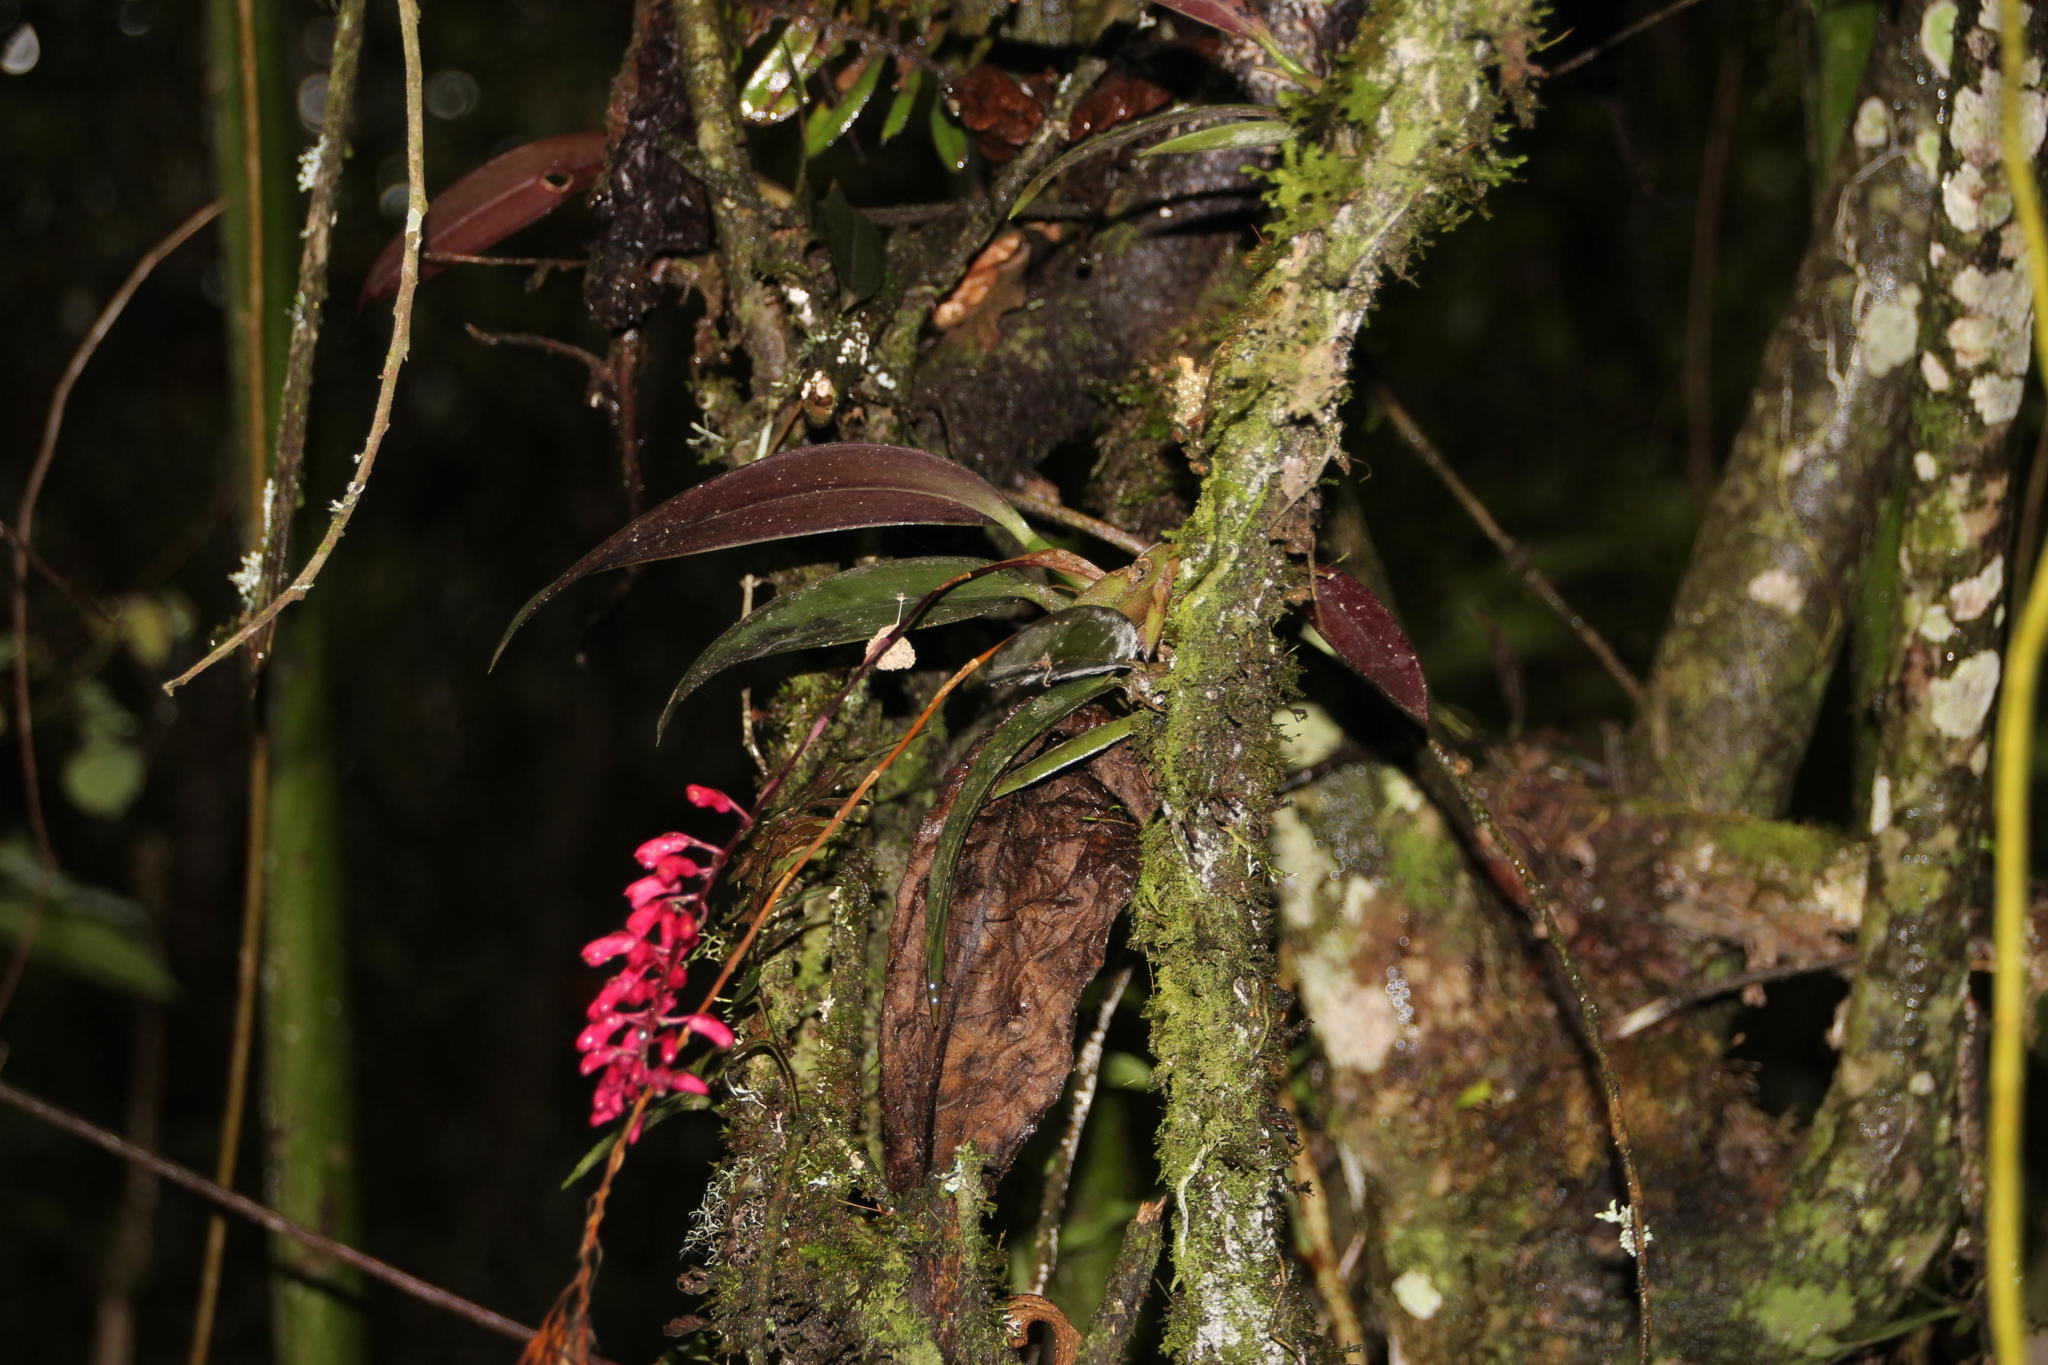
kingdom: Plantae
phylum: Tracheophyta
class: Liliopsida
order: Asparagales
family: Orchidaceae
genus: Comparettia
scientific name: Comparettia rubriflora
